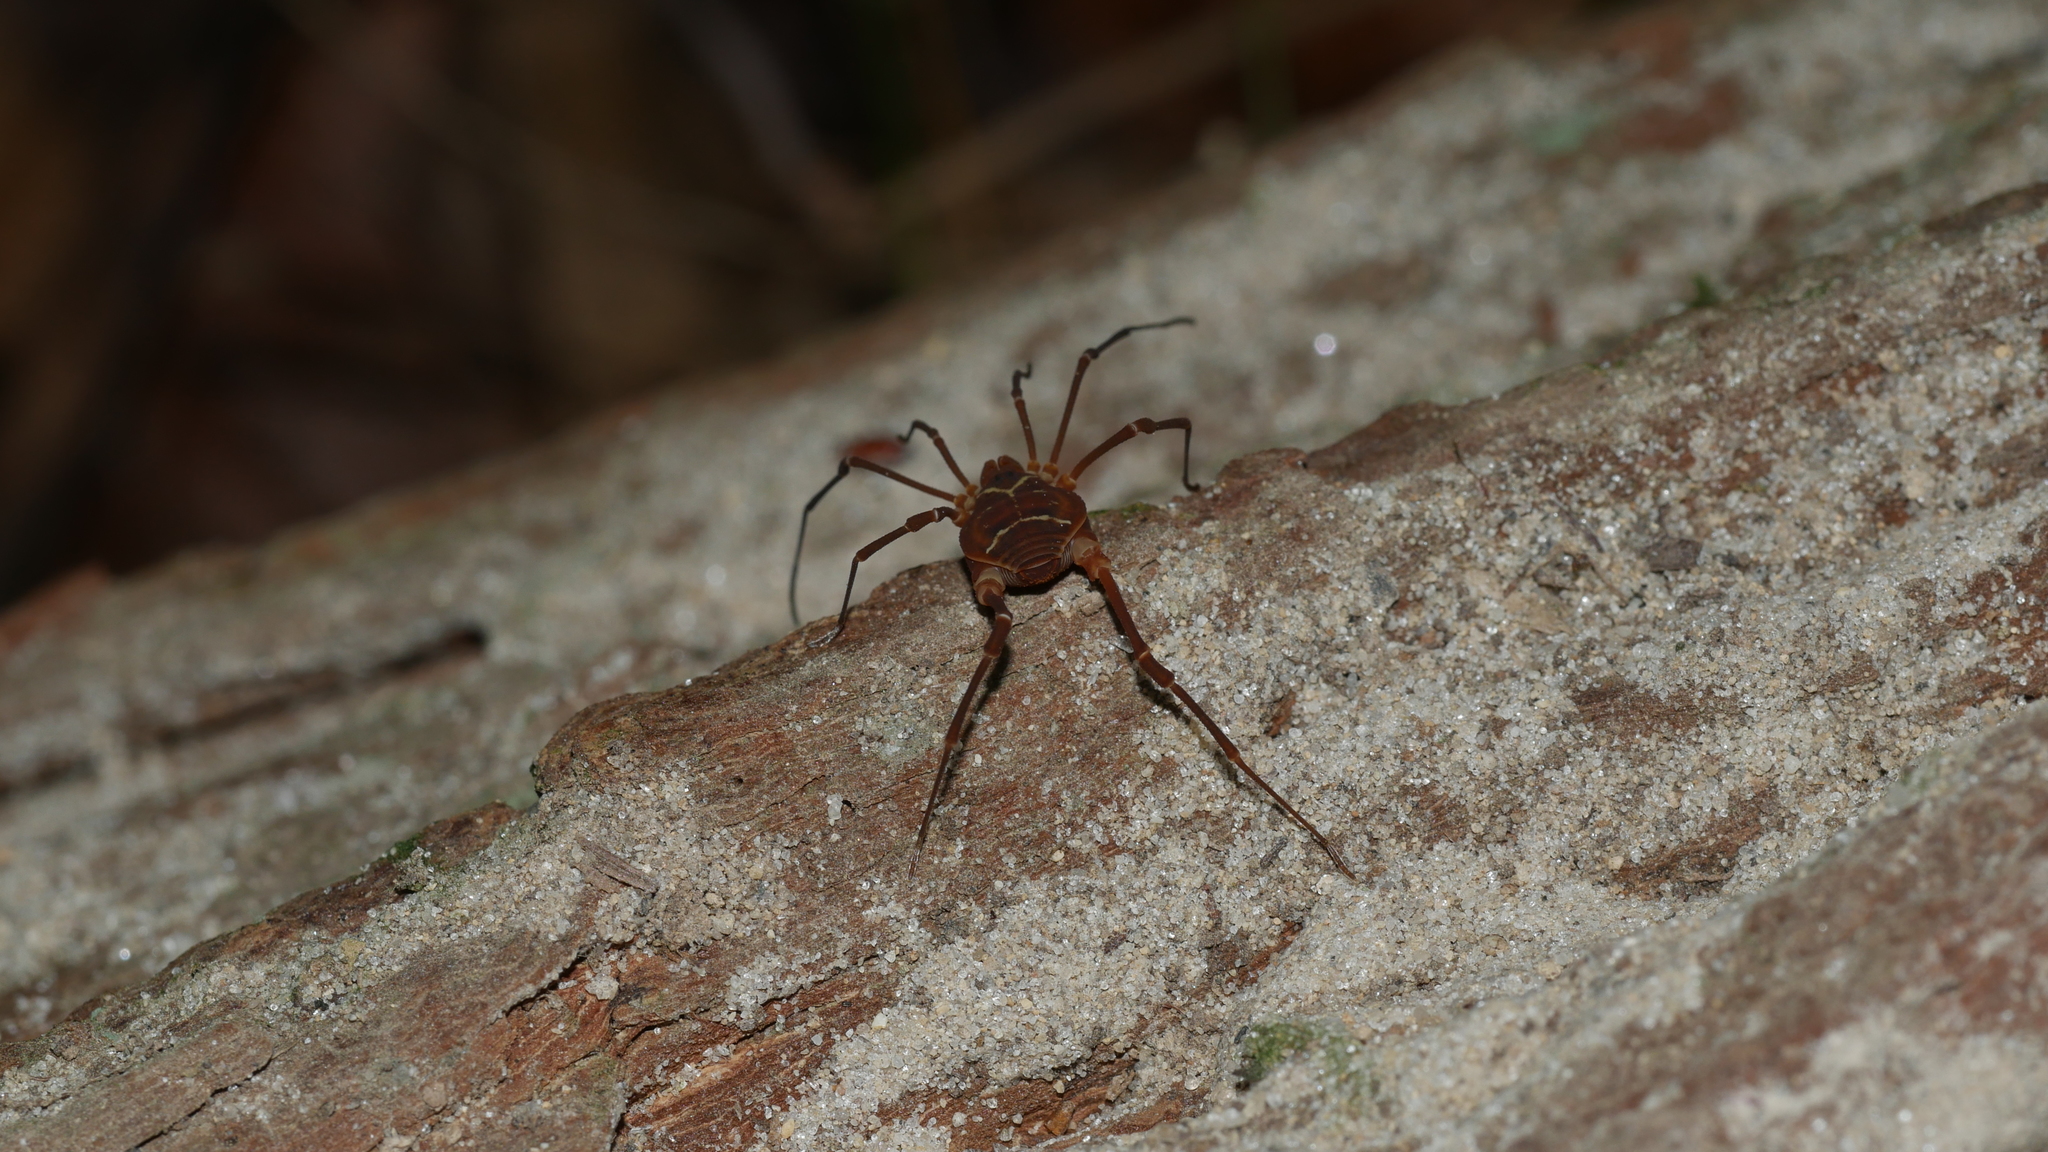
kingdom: Animalia
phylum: Arthropoda
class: Arachnida
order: Opiliones
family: Cosmetidae
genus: Libitioides
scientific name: Libitioides sayi
